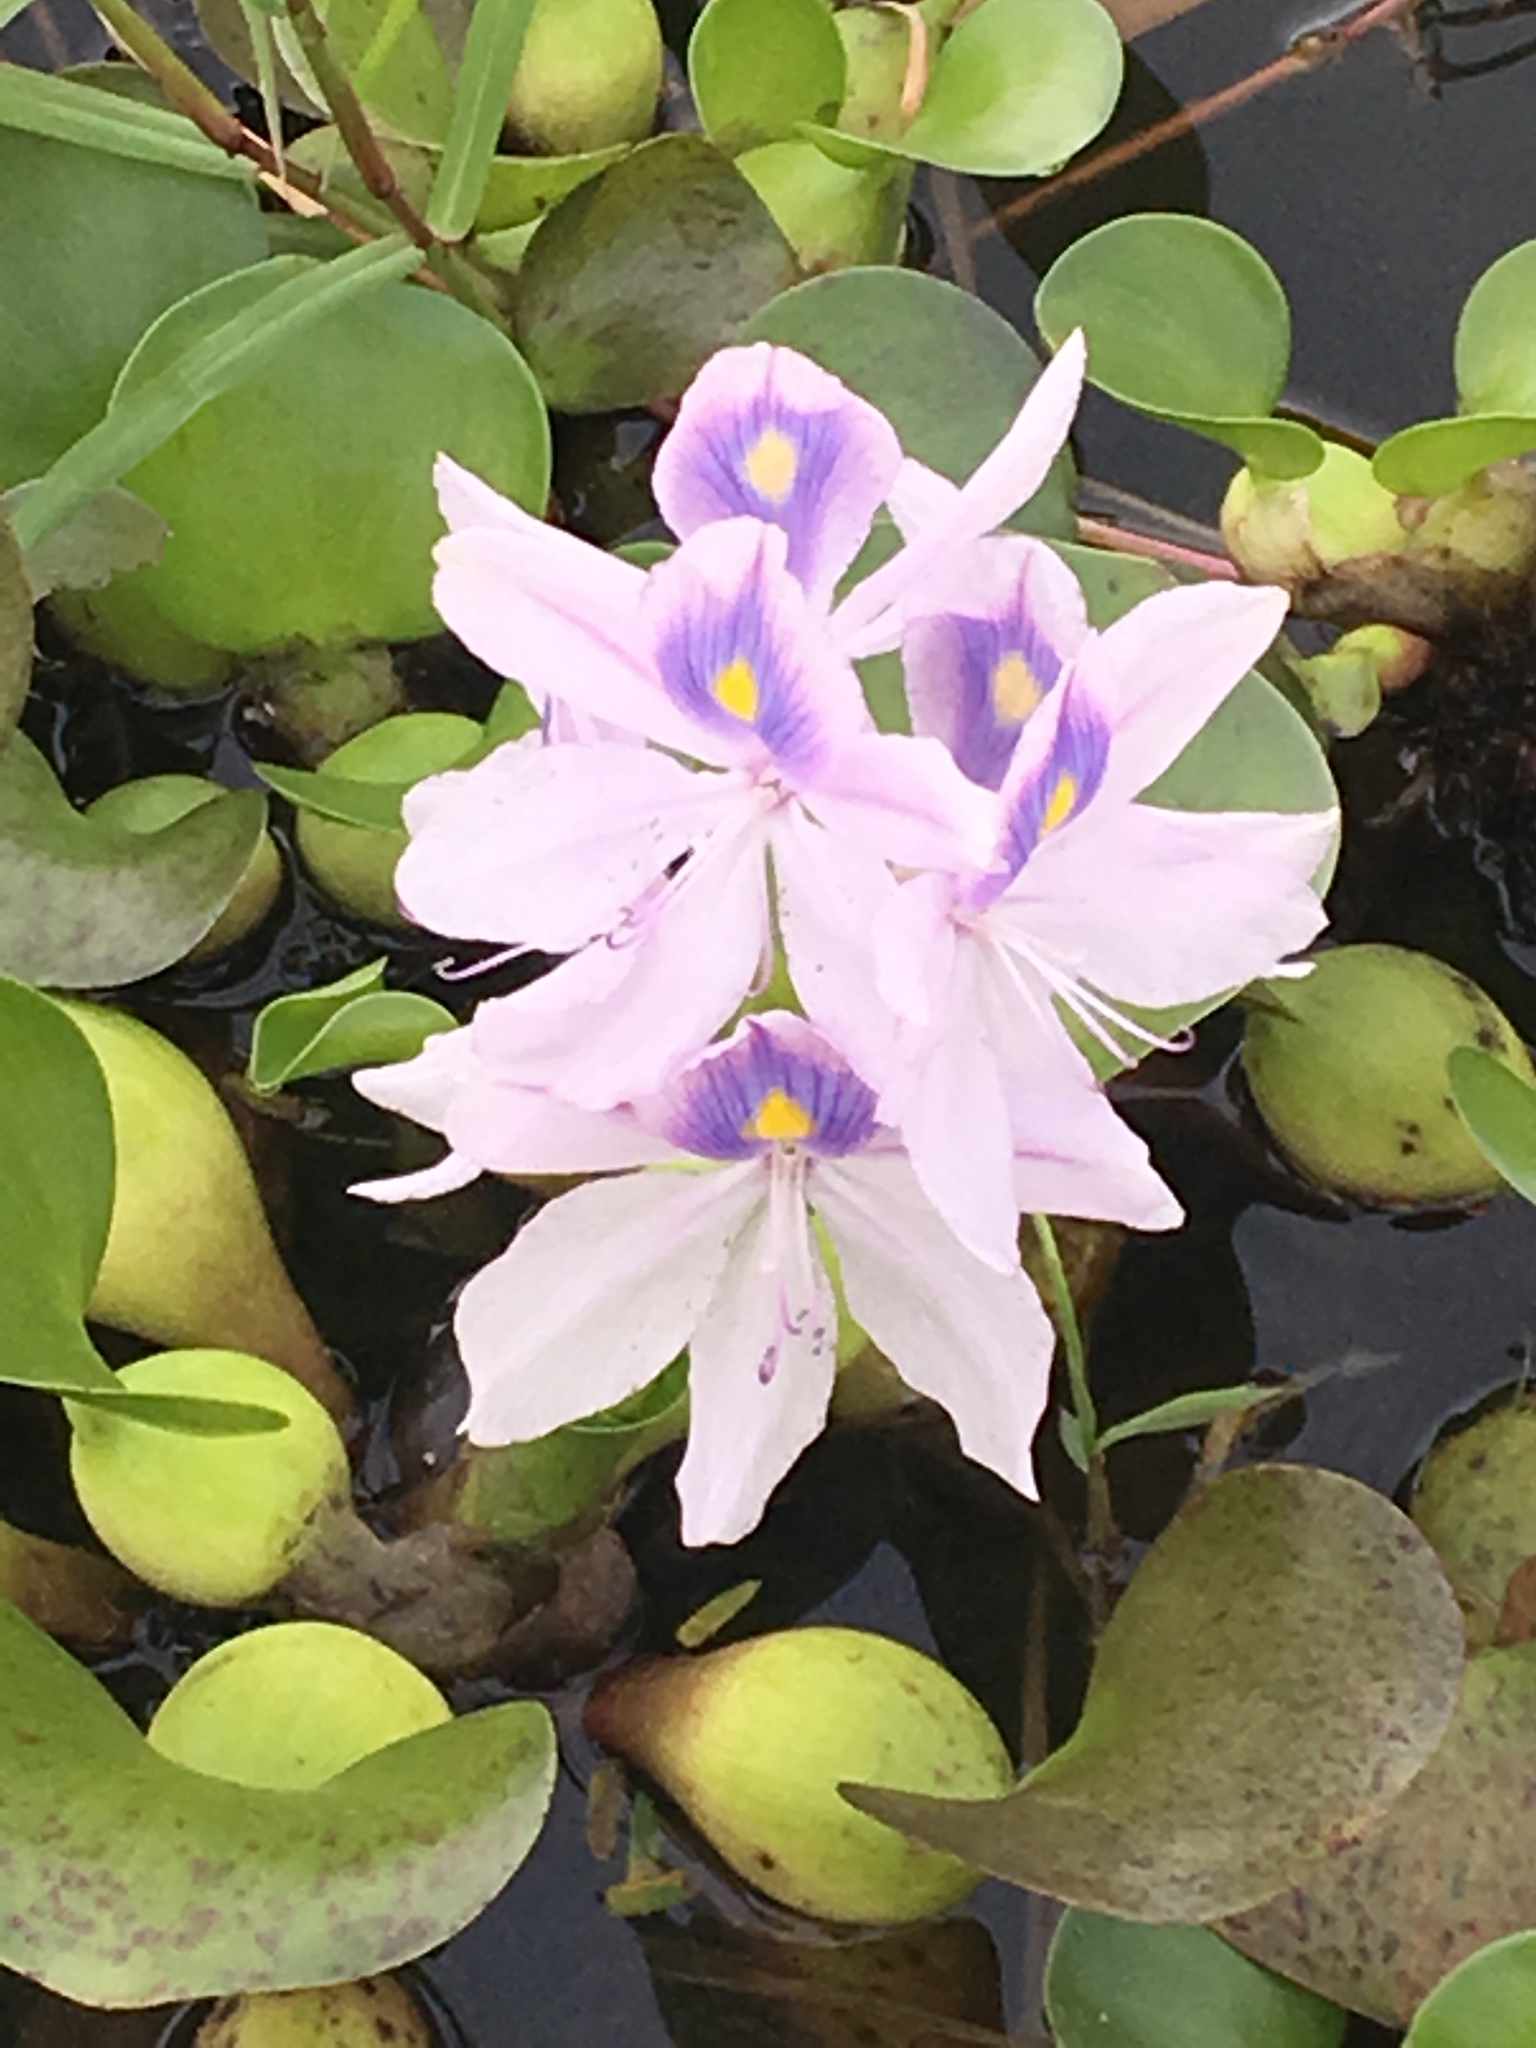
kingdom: Plantae
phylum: Tracheophyta
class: Liliopsida
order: Commelinales
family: Pontederiaceae
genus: Pontederia
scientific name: Pontederia crassipes
